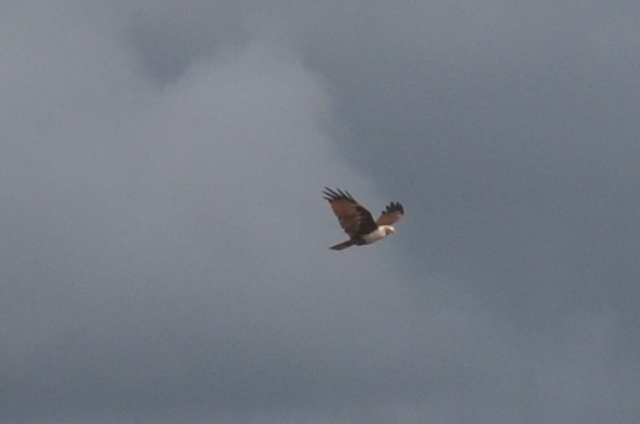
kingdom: Animalia
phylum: Chordata
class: Aves
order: Accipitriformes
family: Accipitridae
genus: Haliastur
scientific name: Haliastur indus
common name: Brahminy kite
